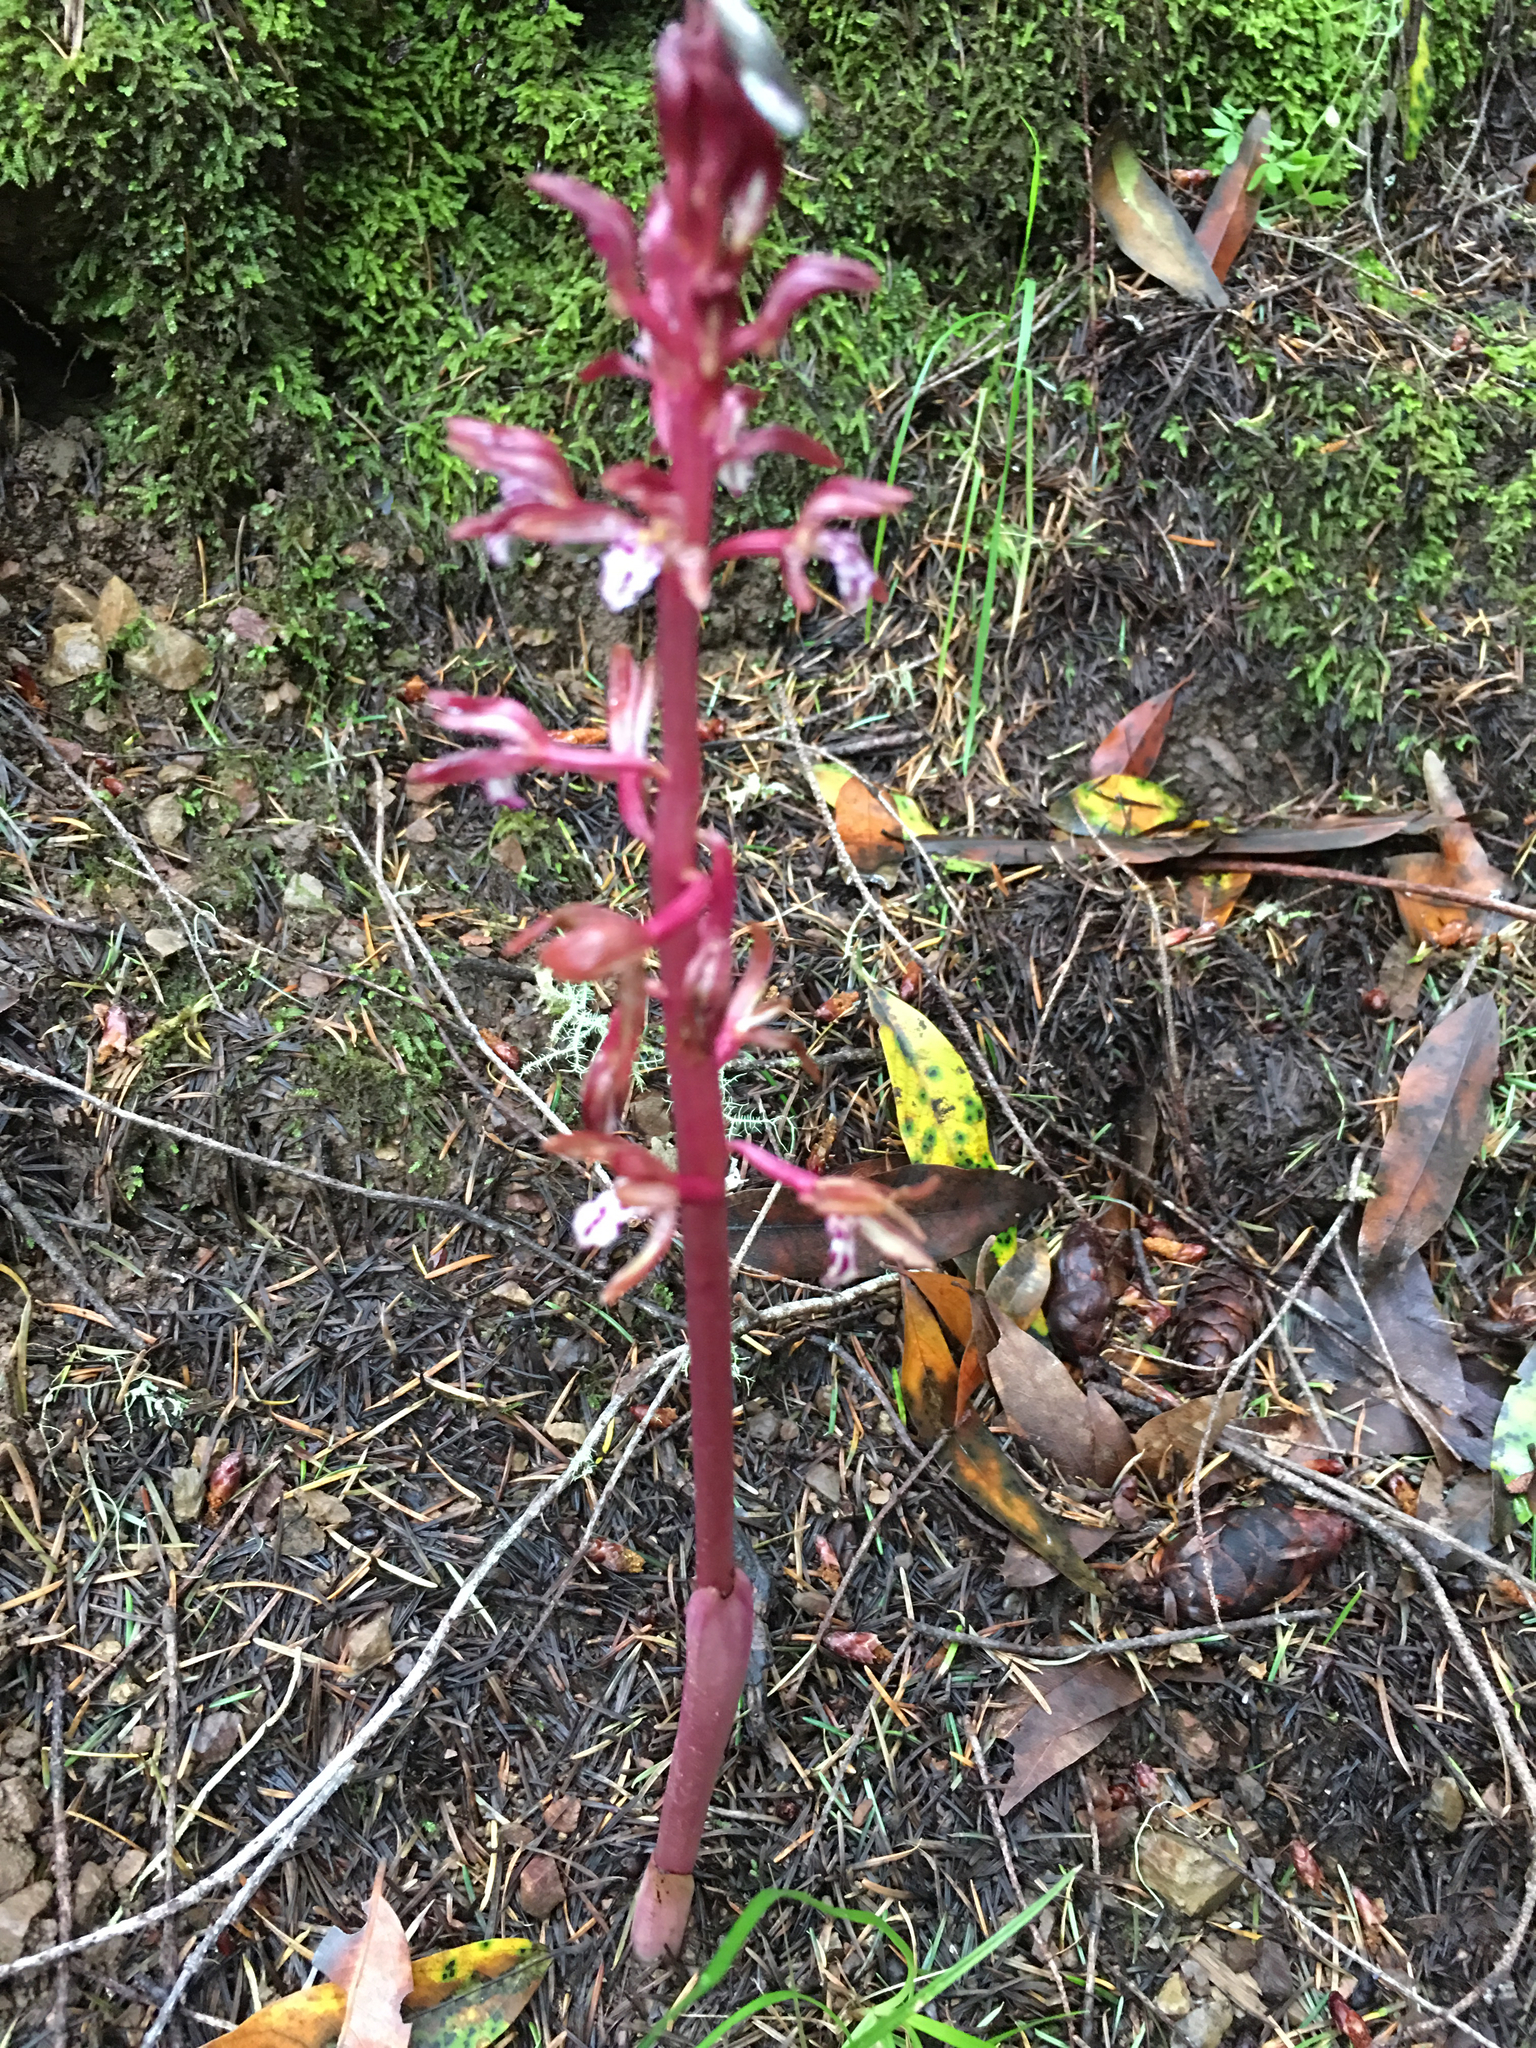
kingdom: Plantae
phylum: Tracheophyta
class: Liliopsida
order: Asparagales
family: Orchidaceae
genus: Corallorhiza
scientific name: Corallorhiza maculata
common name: Spotted coralroot
